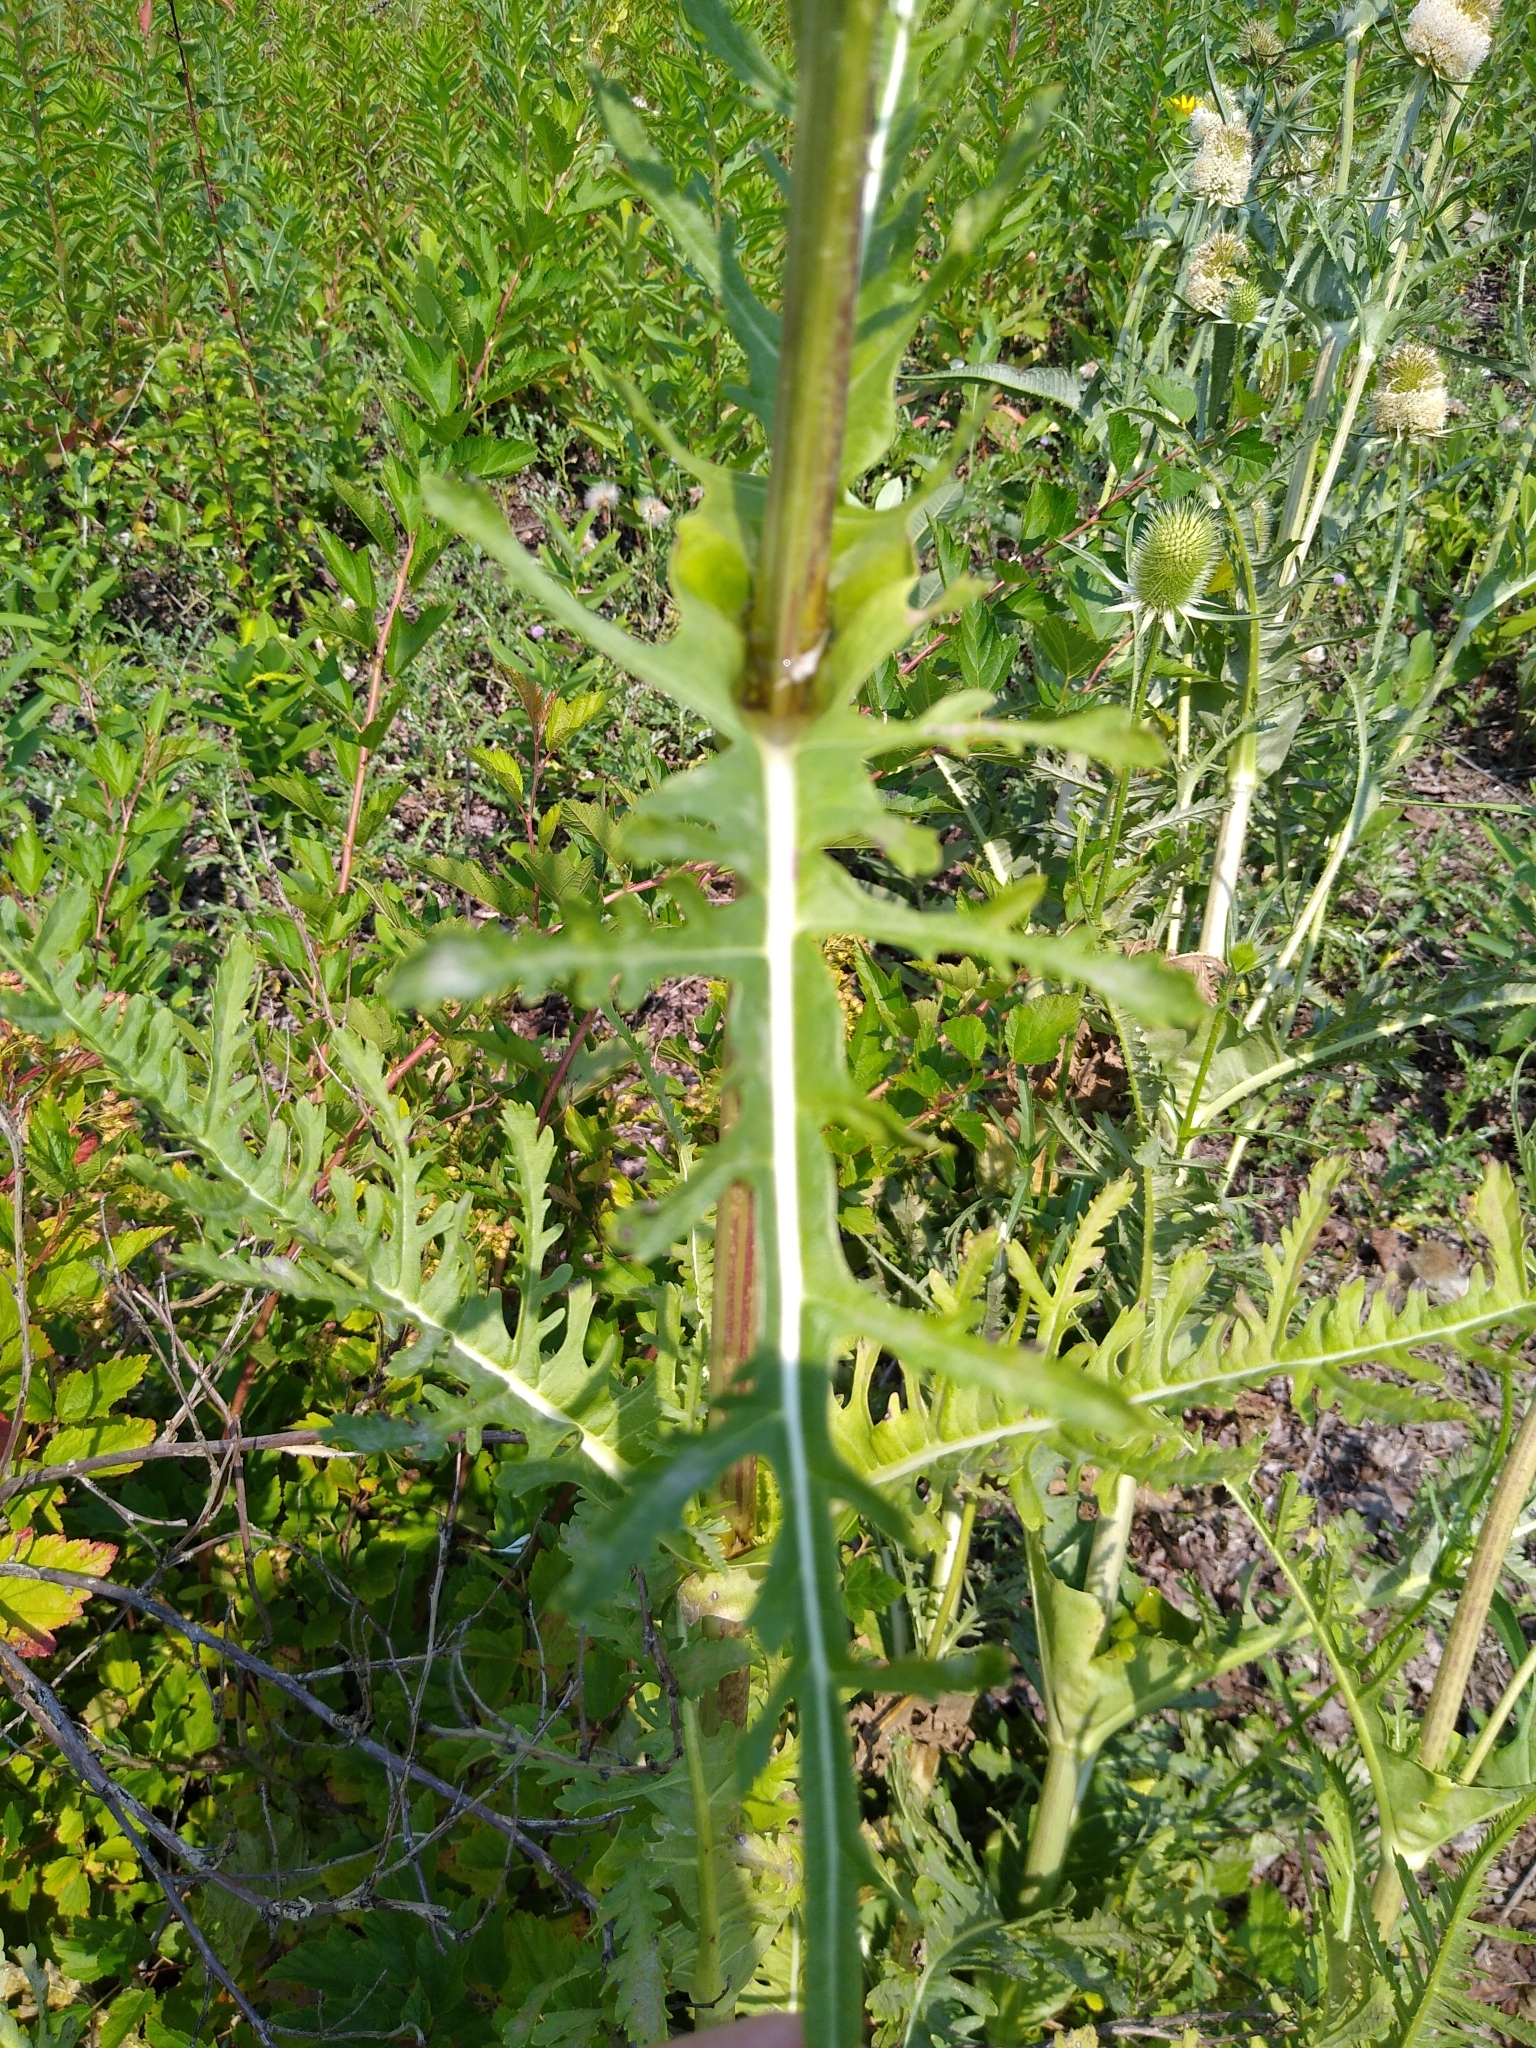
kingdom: Plantae
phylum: Tracheophyta
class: Magnoliopsida
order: Dipsacales
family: Caprifoliaceae
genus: Dipsacus
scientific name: Dipsacus laciniatus
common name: Cut-leaved teasel
